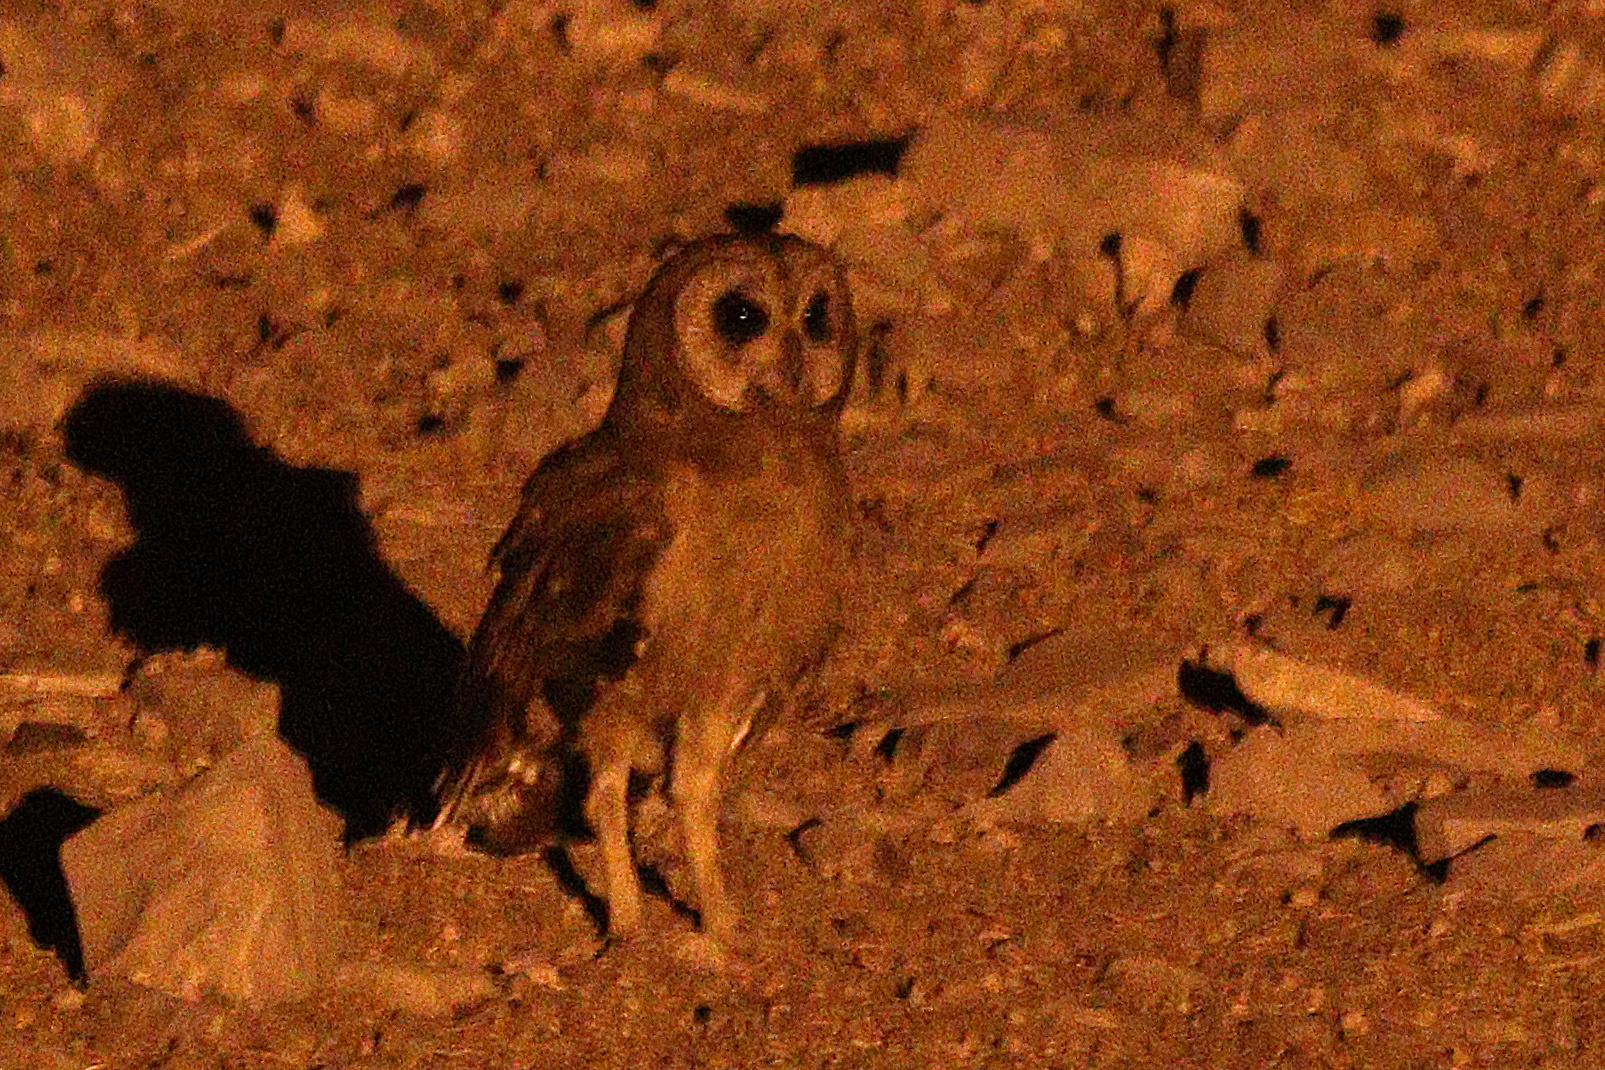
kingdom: Animalia
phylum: Chordata
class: Aves
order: Strigiformes
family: Strigidae
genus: Asio
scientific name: Asio capensis
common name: Marsh owl
